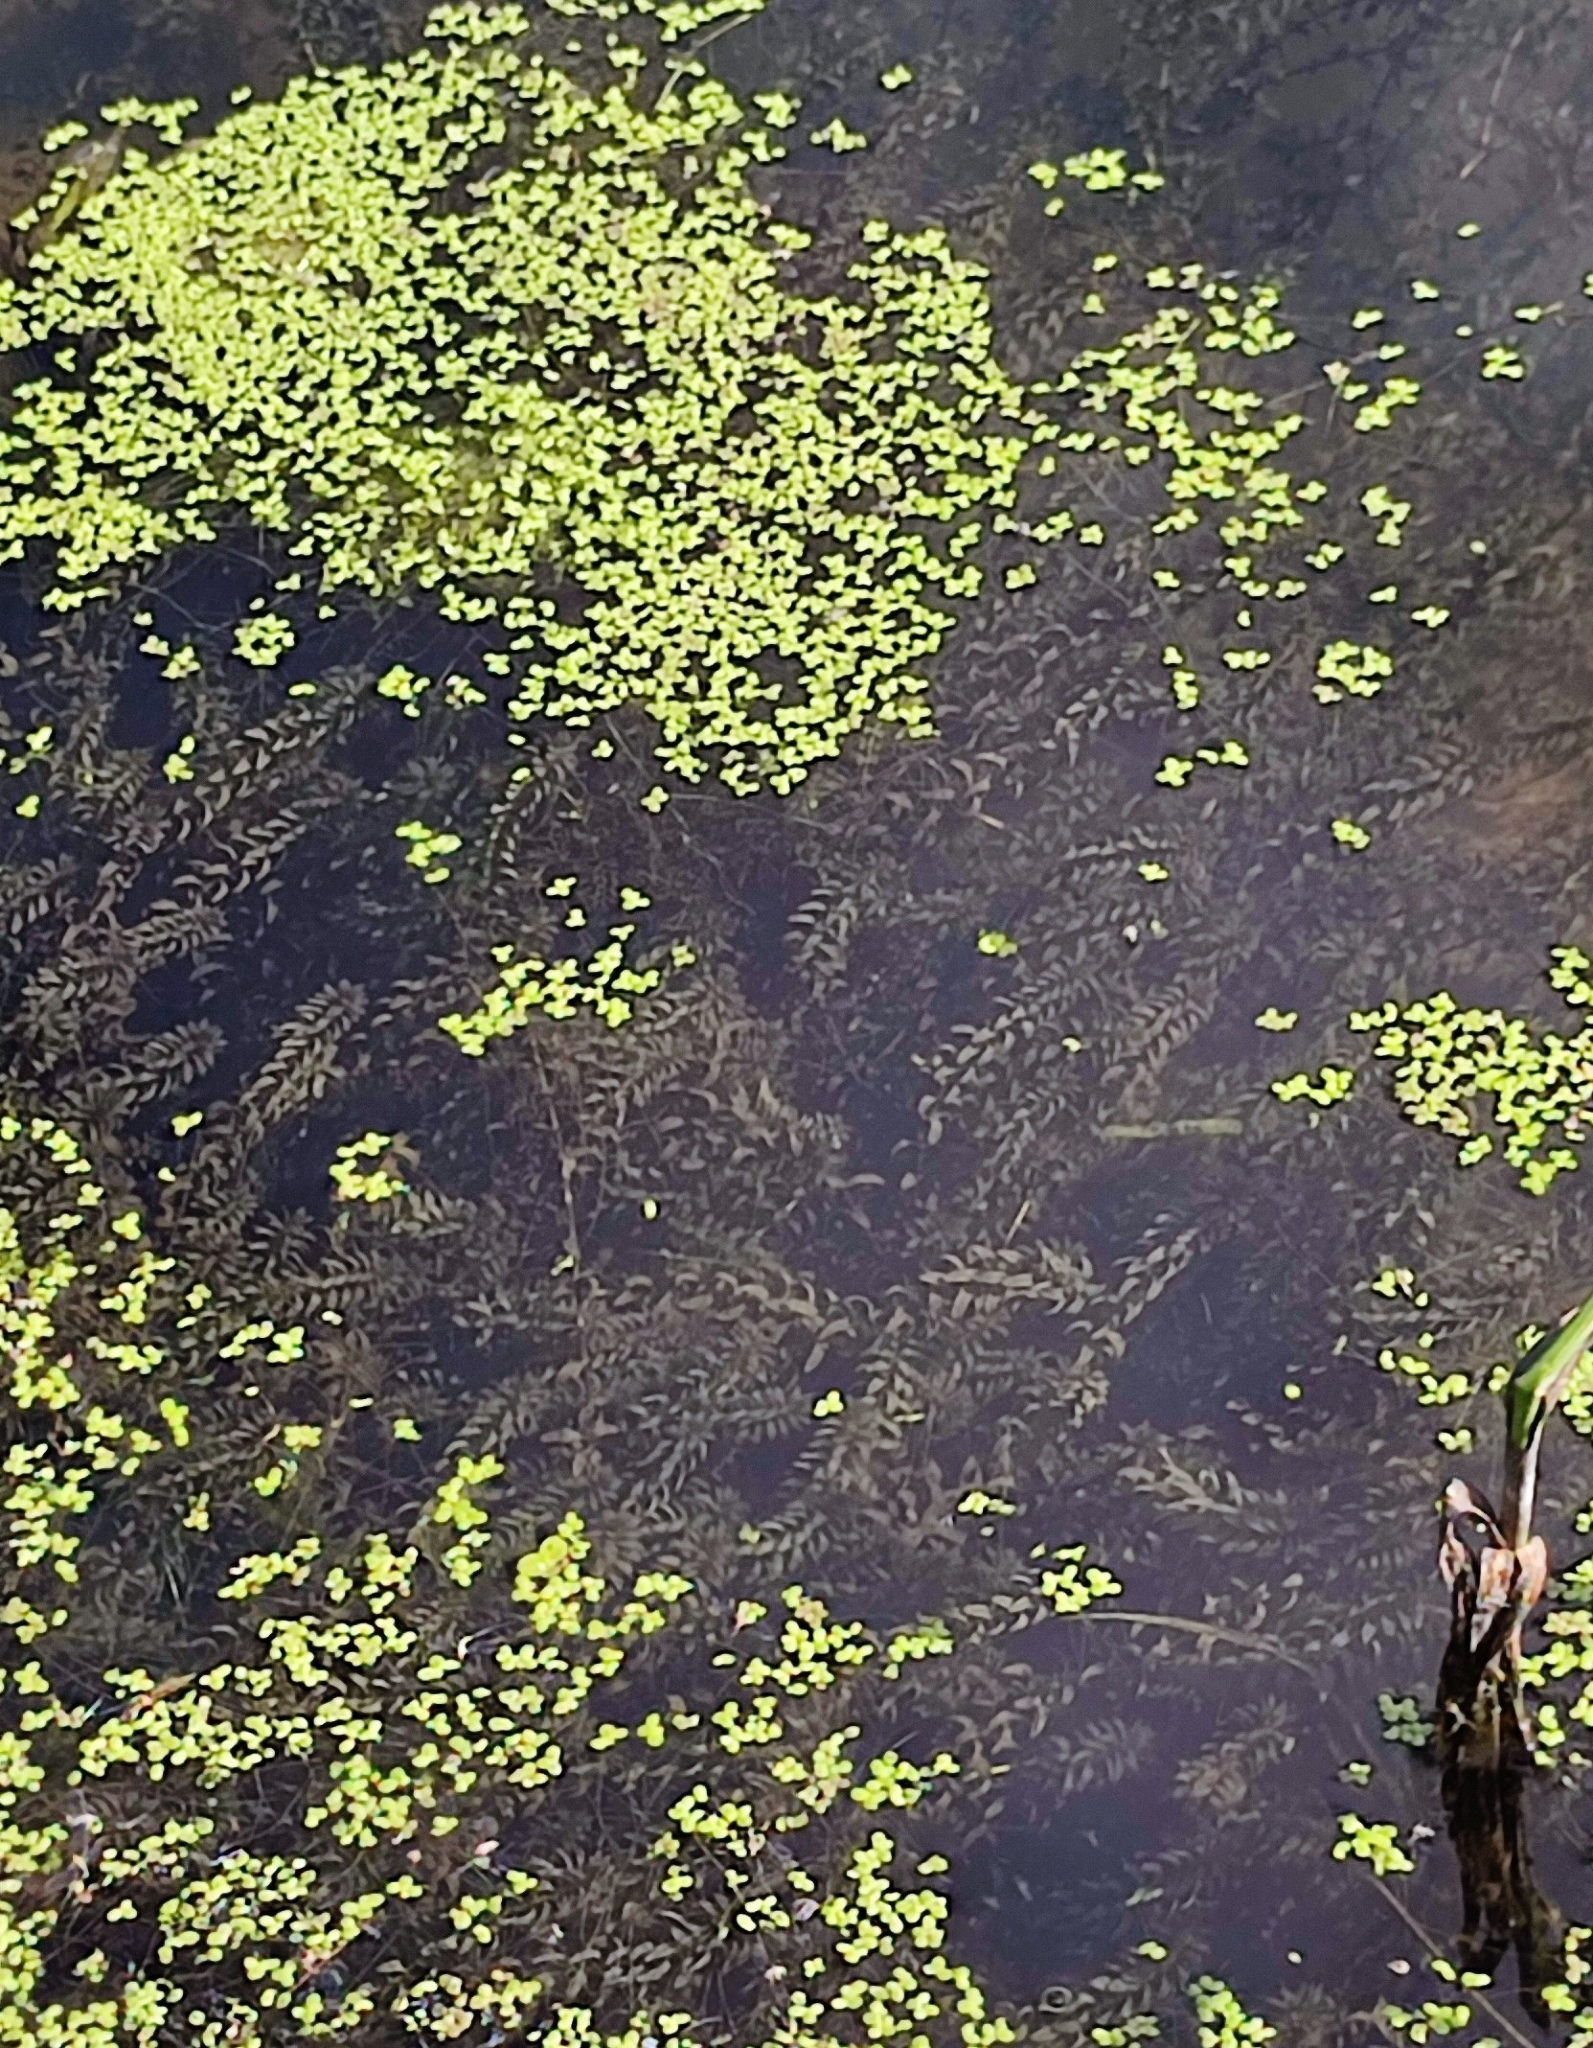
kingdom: Plantae
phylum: Tracheophyta
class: Liliopsida
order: Alismatales
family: Hydrocharitaceae
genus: Elodea
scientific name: Elodea canadensis
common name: Canadian waterweed
